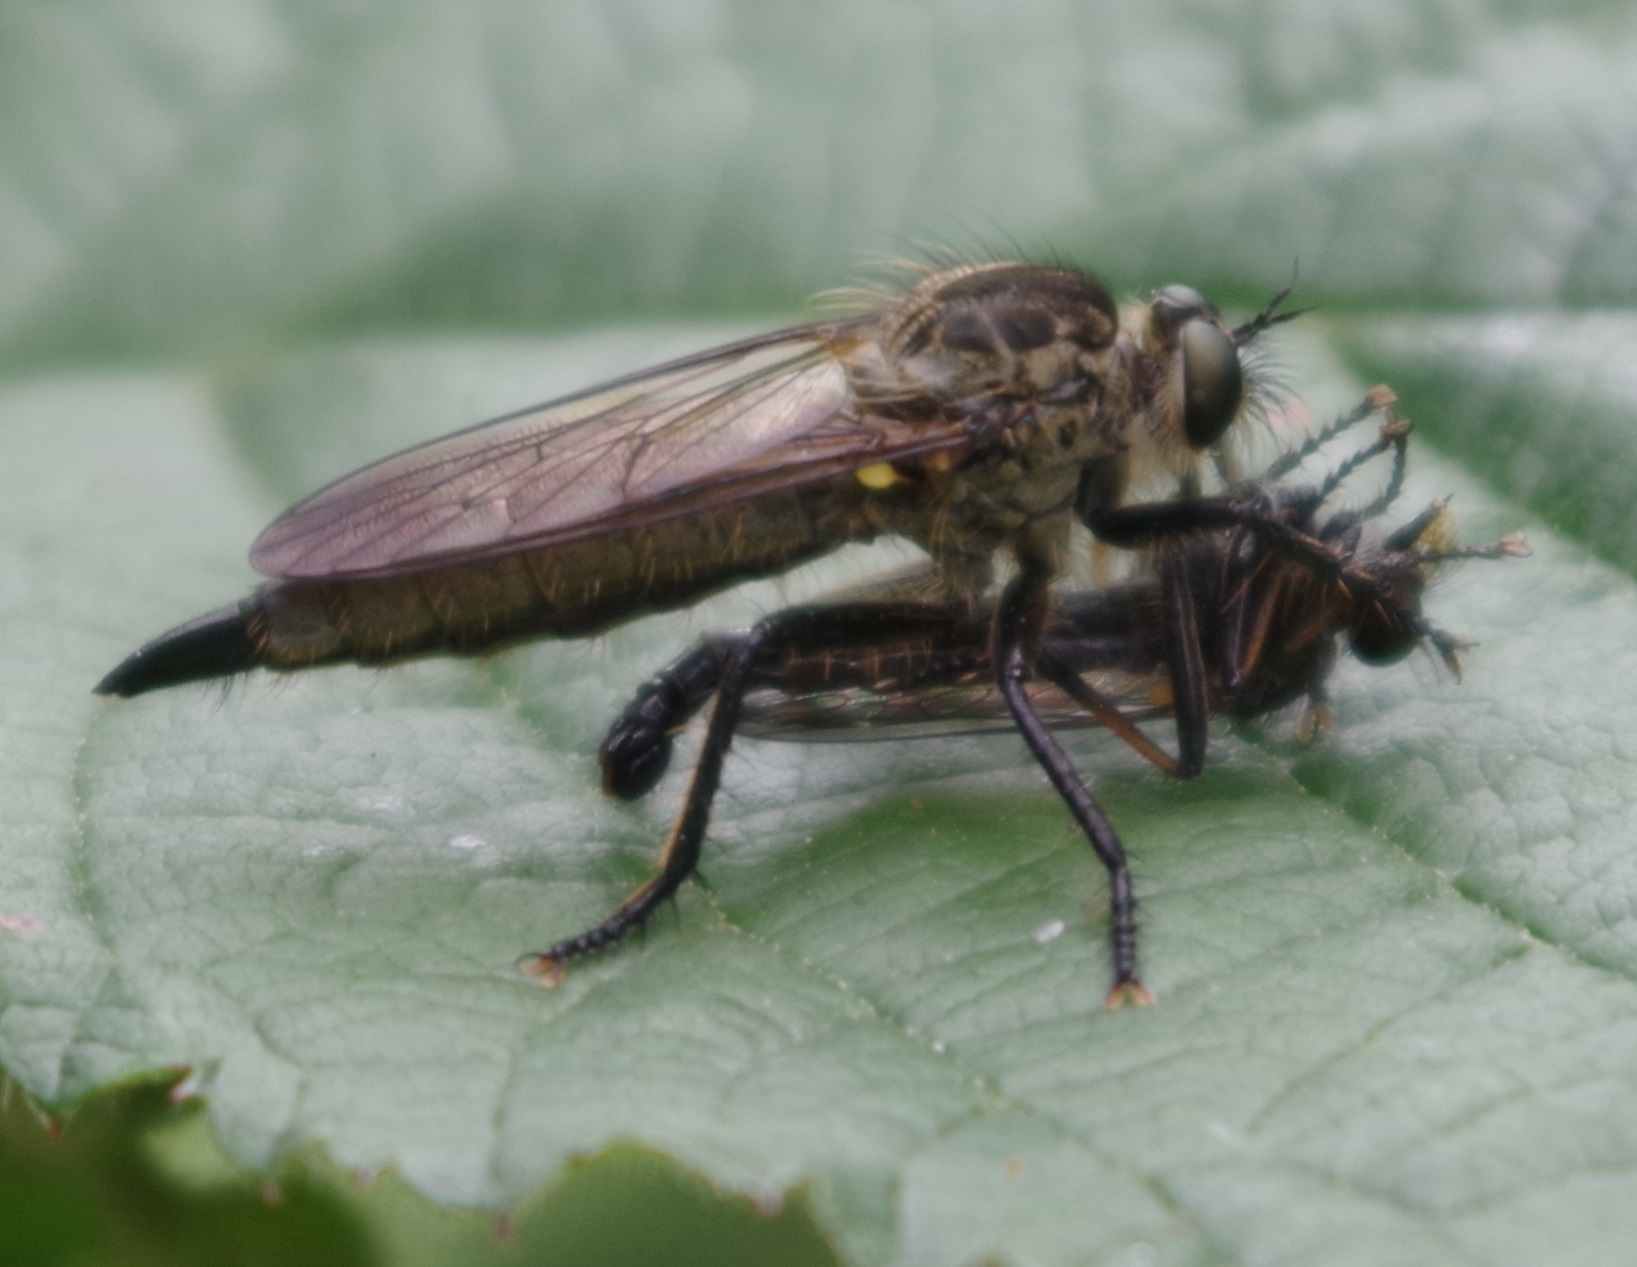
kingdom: Animalia
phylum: Arthropoda
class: Insecta
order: Diptera
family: Asilidae
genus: Didysmachus
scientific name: Didysmachus picipes
